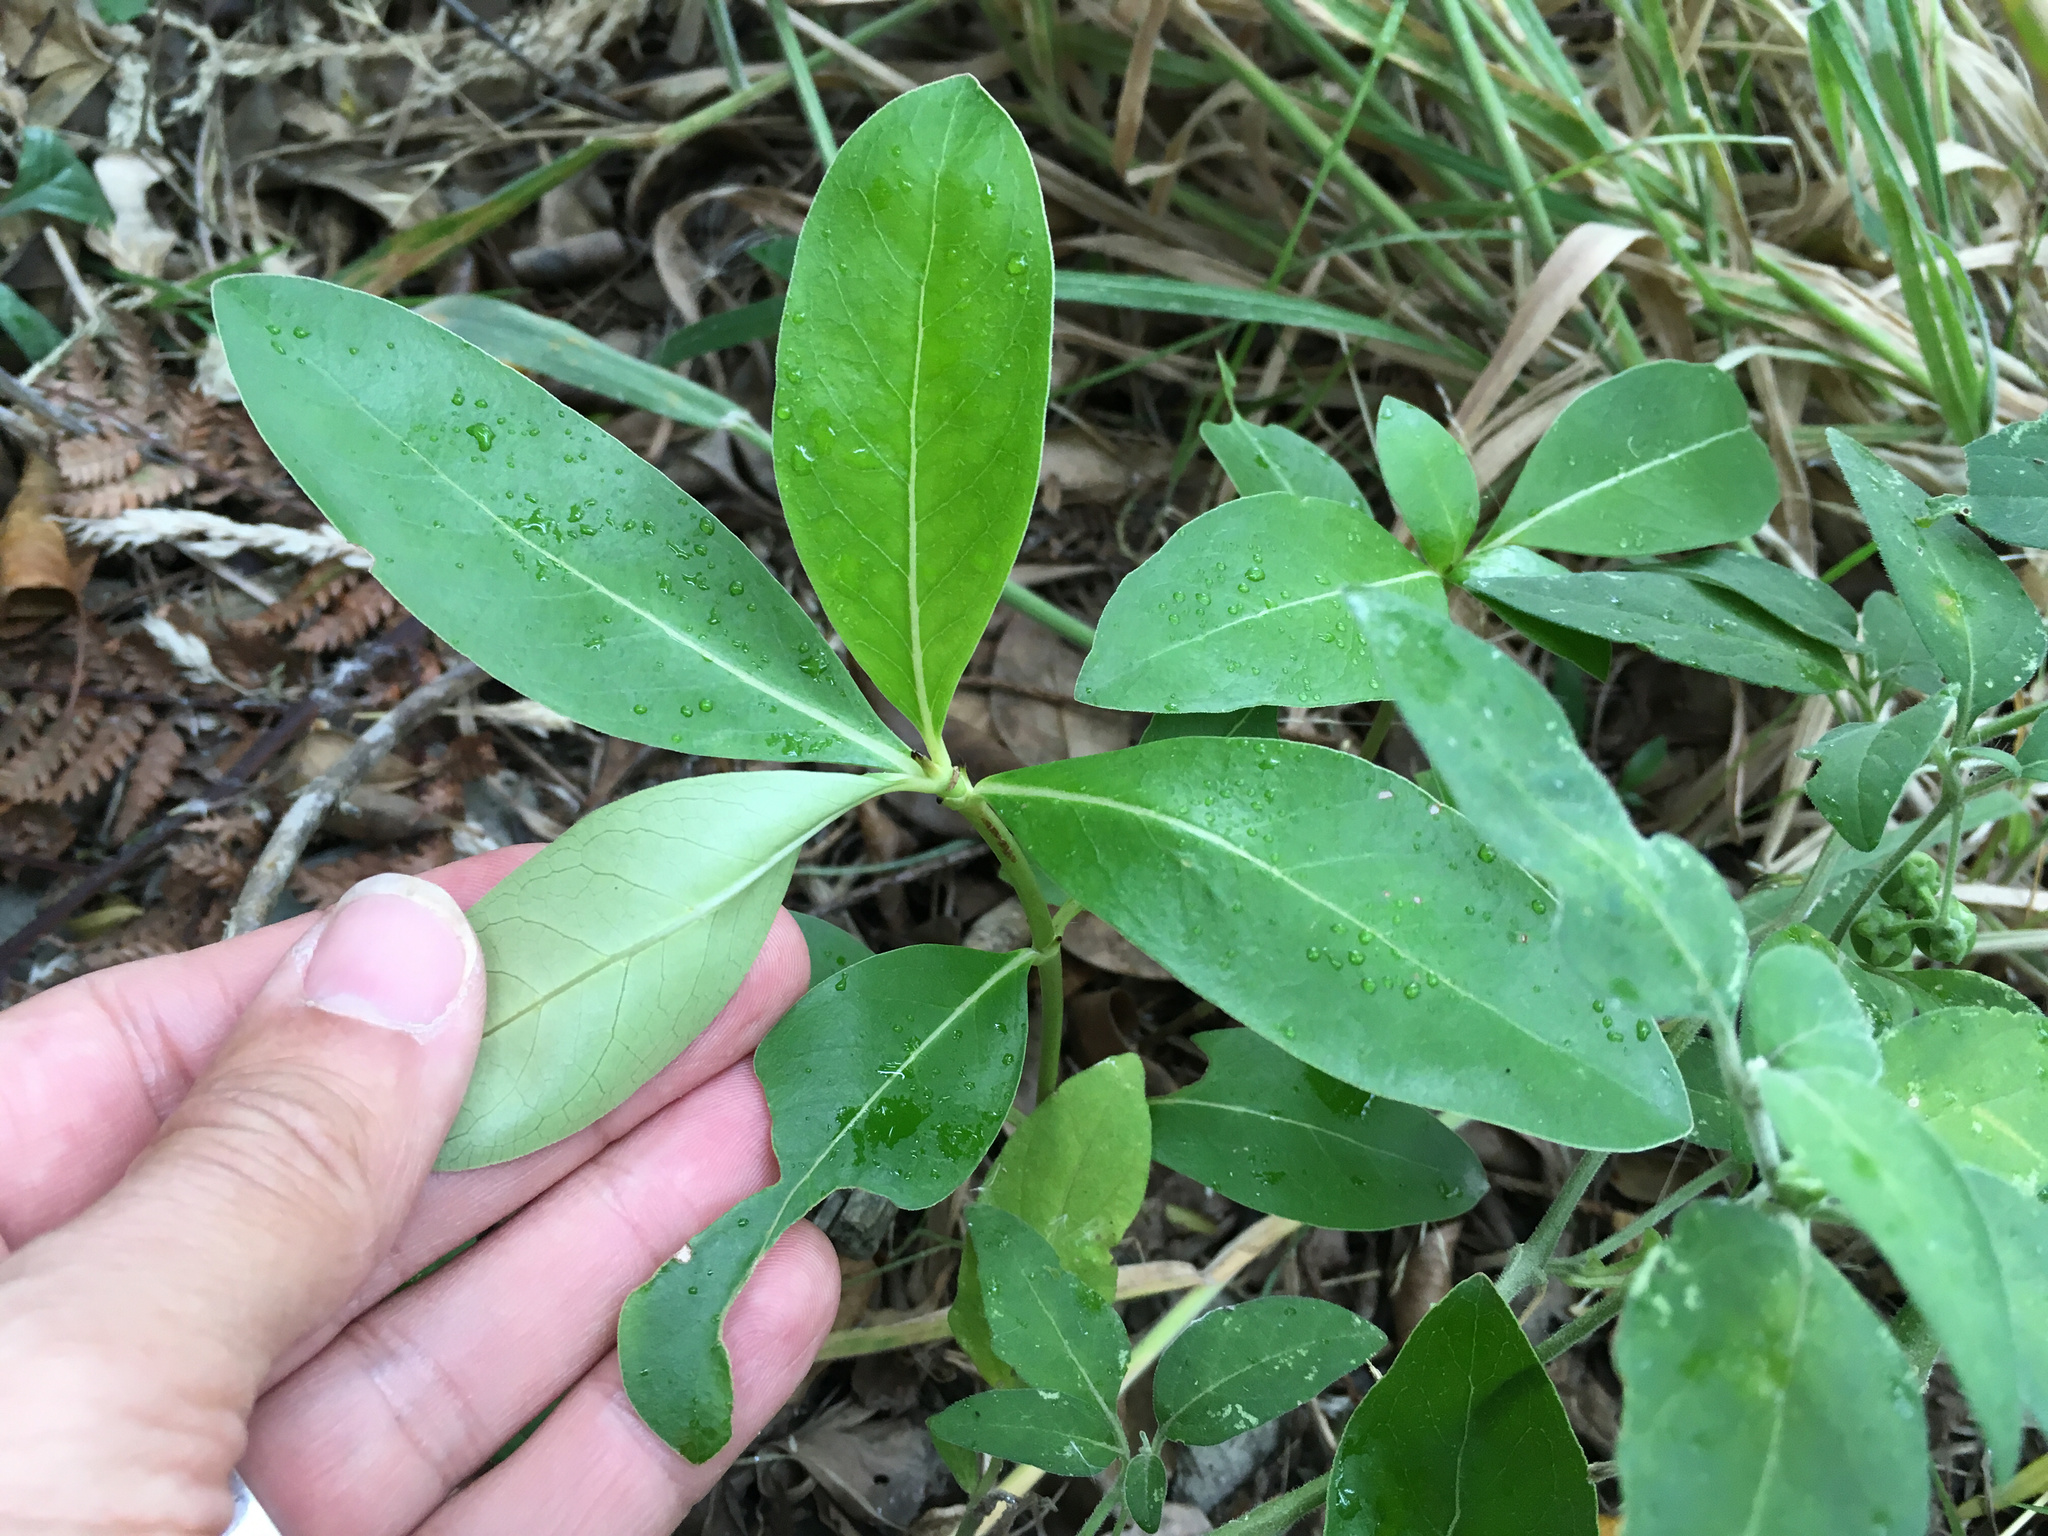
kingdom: Plantae
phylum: Tracheophyta
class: Magnoliopsida
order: Gentianales
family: Rubiaceae
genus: Coprosma
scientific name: Coprosma robusta
